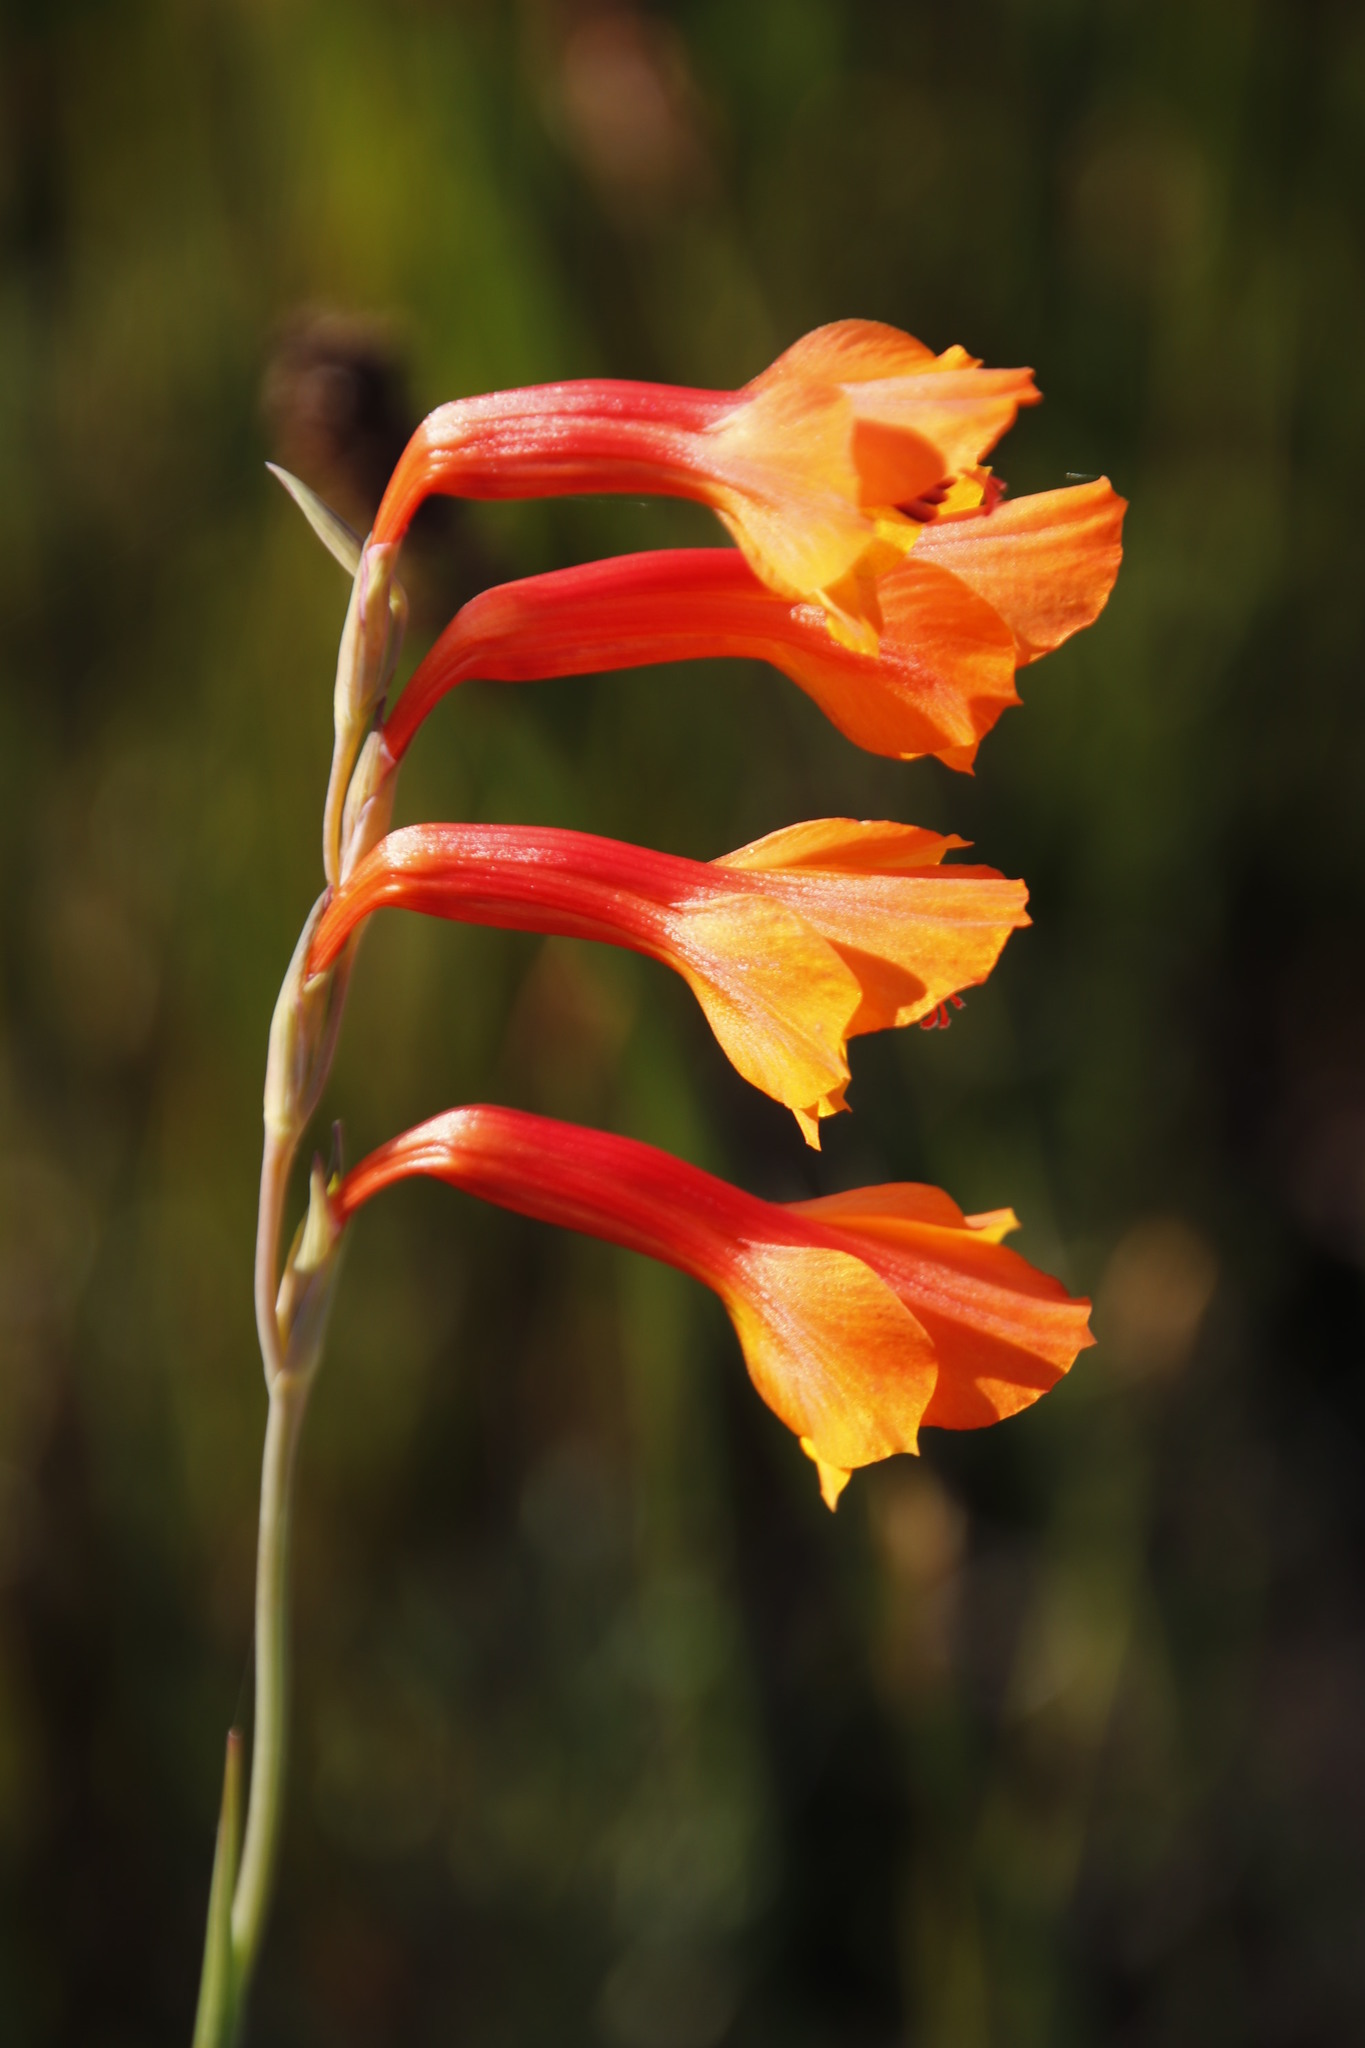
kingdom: Plantae
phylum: Tracheophyta
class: Liliopsida
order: Asparagales
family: Iridaceae
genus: Gladiolus
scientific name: Gladiolus merianellus
